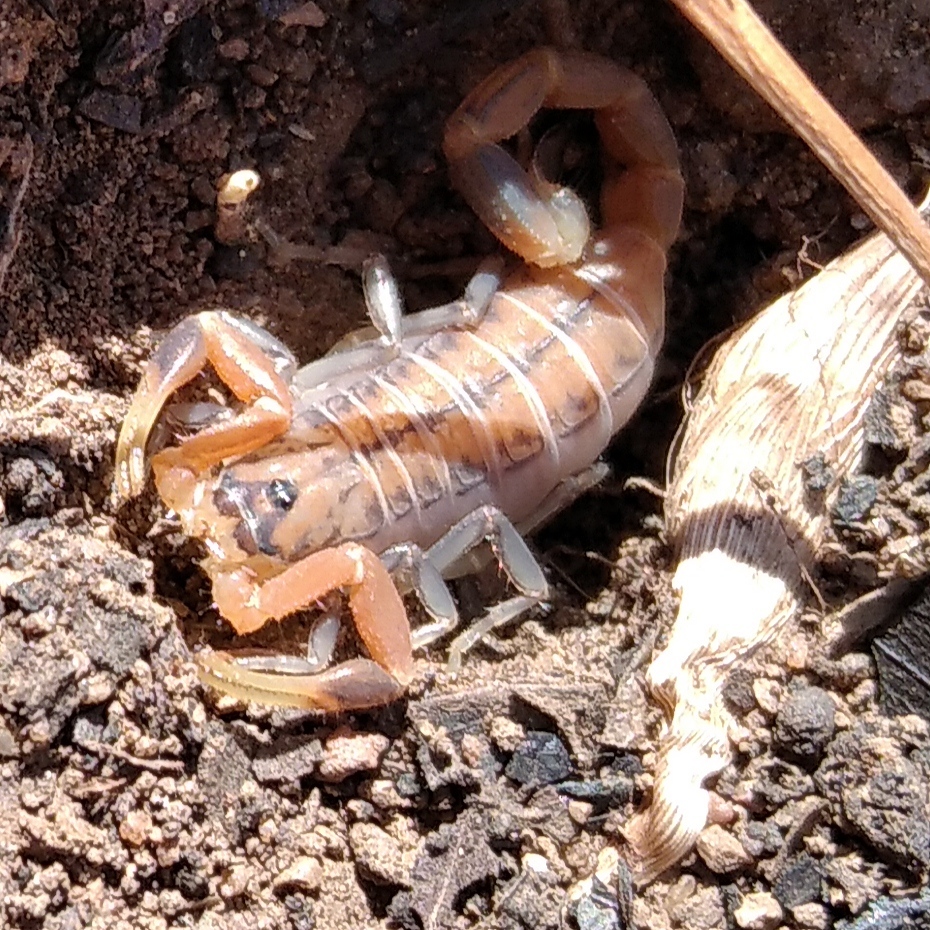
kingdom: Animalia
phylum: Arthropoda
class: Arachnida
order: Scorpiones
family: Buthidae
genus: Uroplectes
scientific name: Uroplectes planimanus
